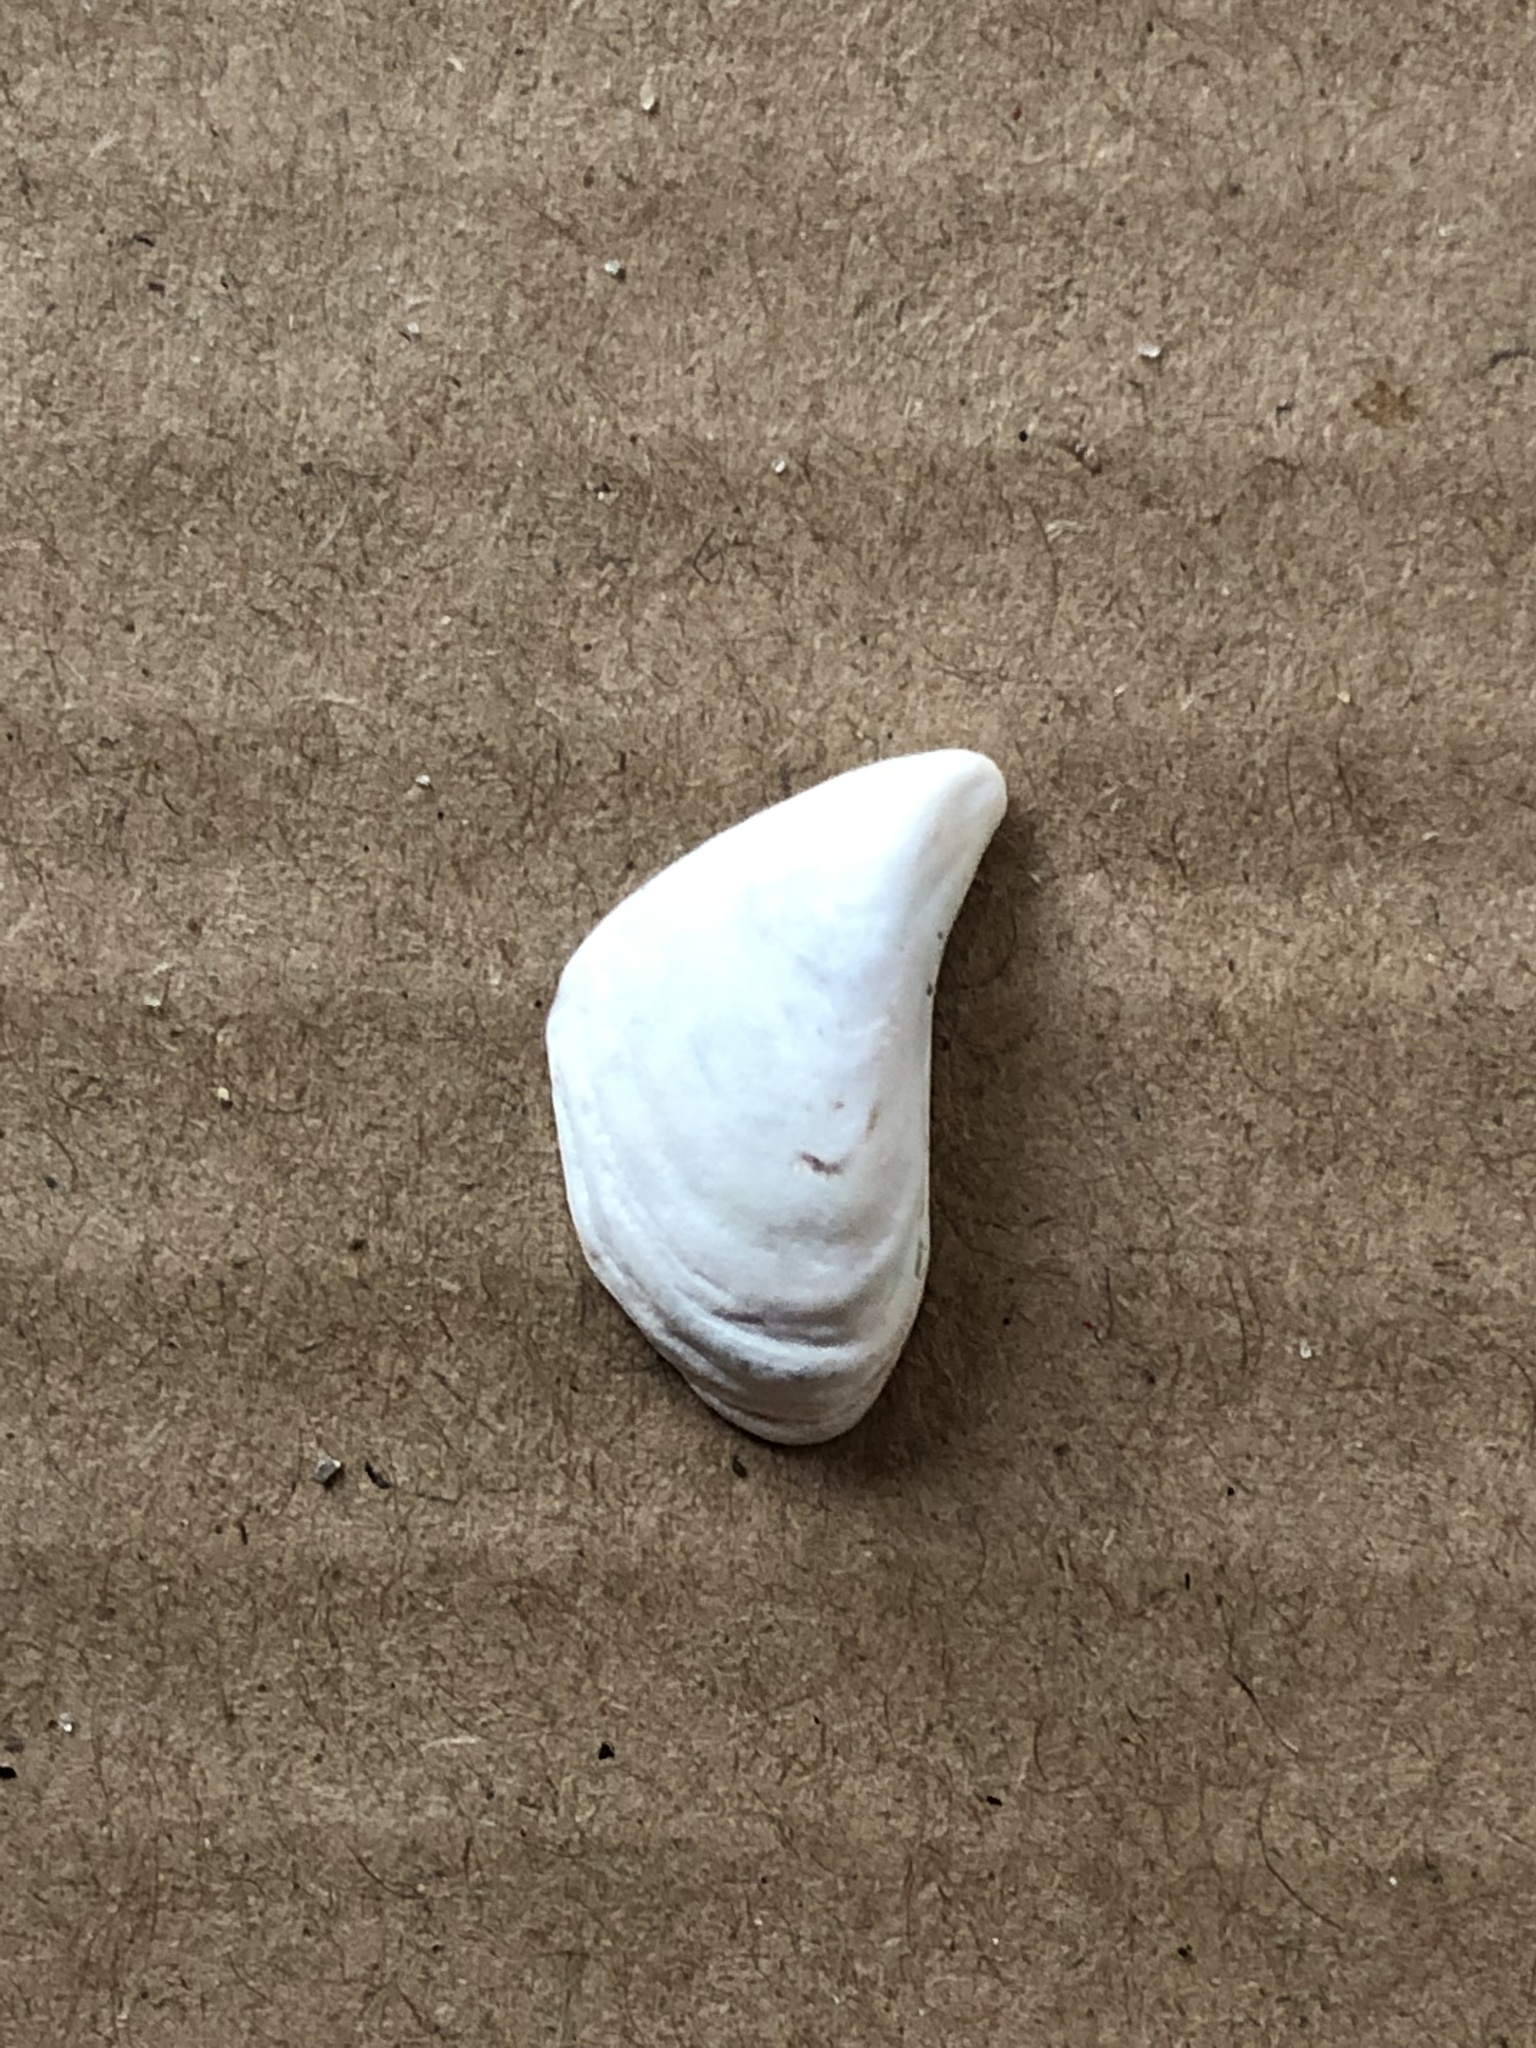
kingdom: Animalia
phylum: Mollusca
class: Bivalvia
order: Myida
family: Dreissenidae
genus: Dreissena
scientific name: Dreissena bugensis
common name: Quagga mussel
